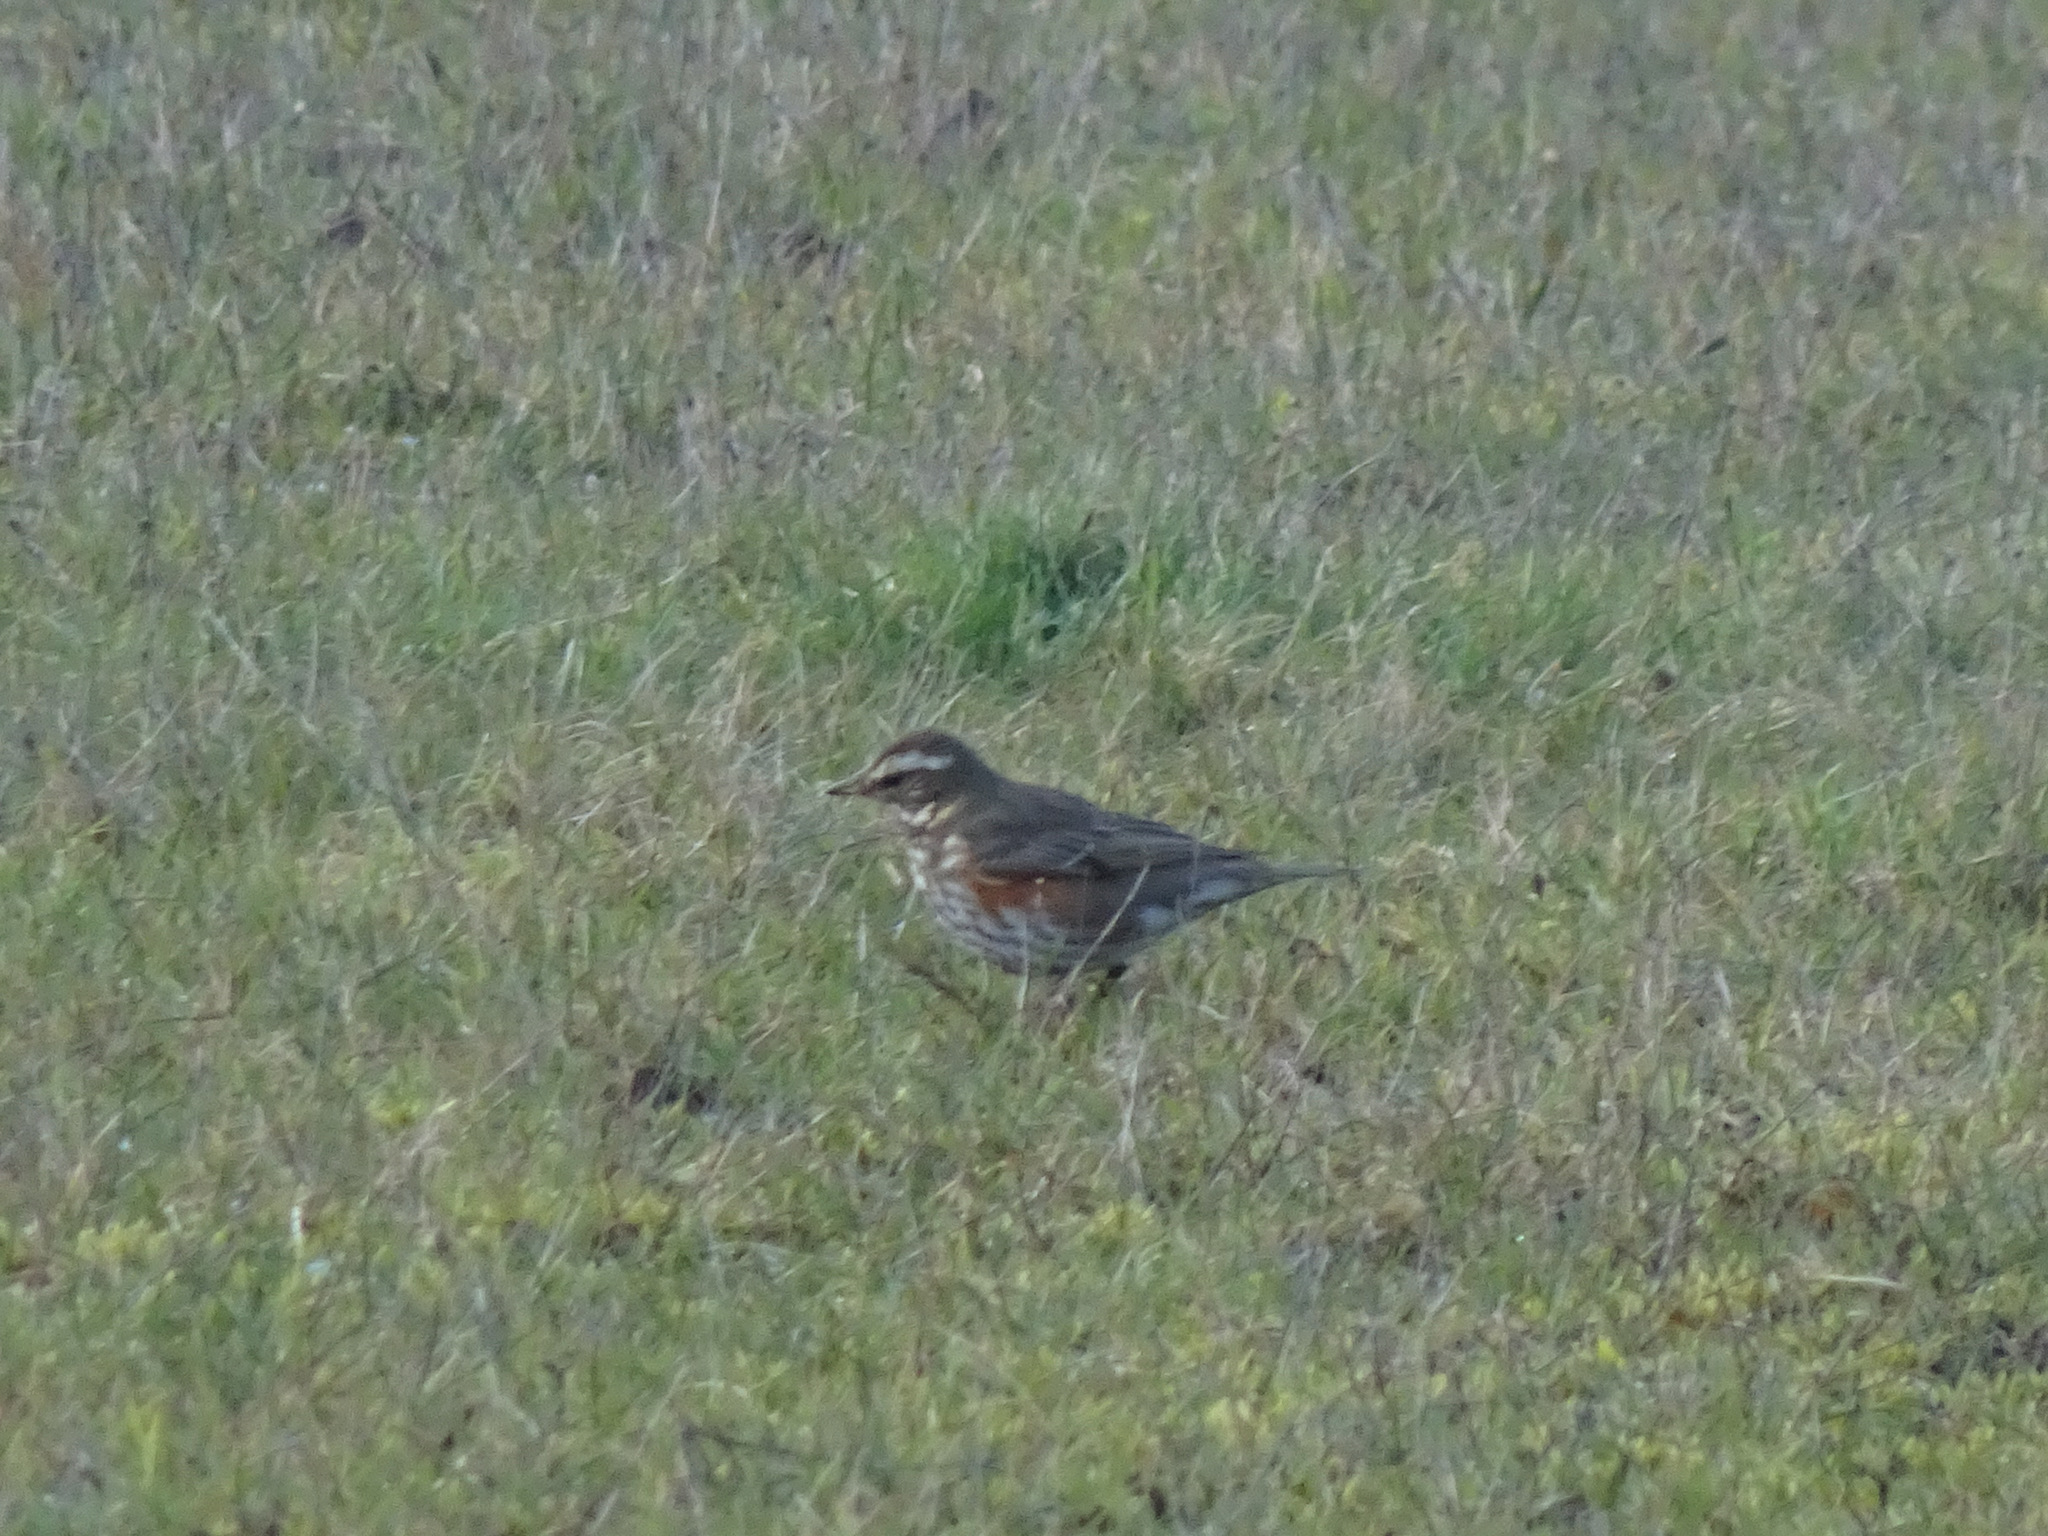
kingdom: Animalia
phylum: Chordata
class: Aves
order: Passeriformes
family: Turdidae
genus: Turdus
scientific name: Turdus iliacus
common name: Redwing
